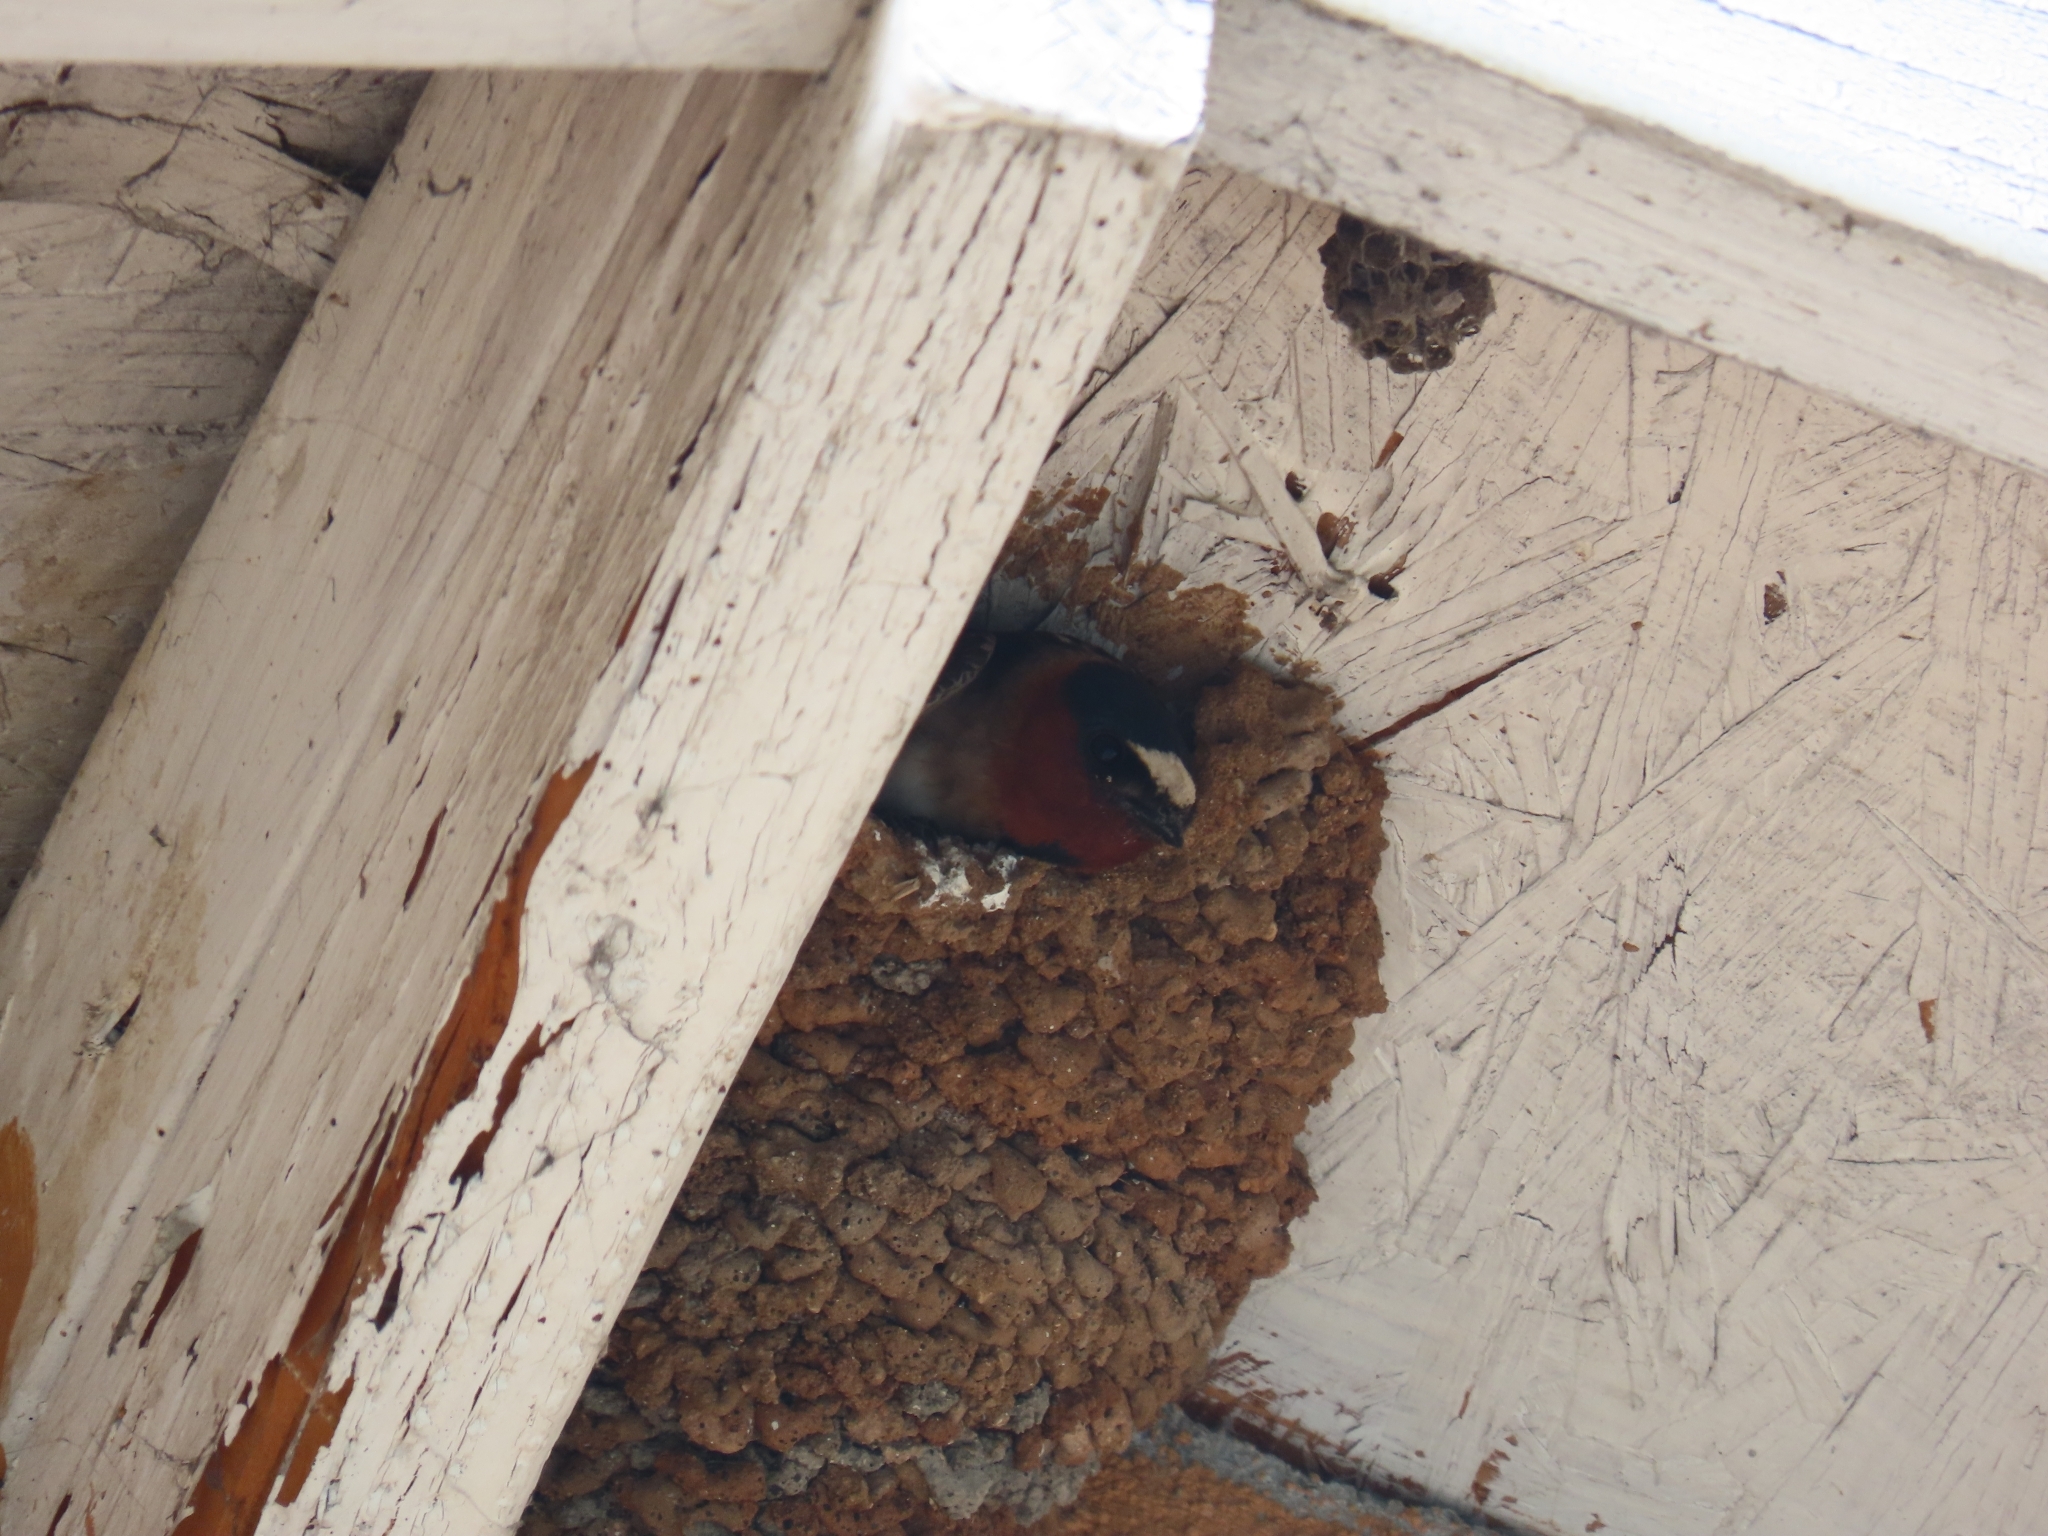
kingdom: Animalia
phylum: Chordata
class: Aves
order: Passeriformes
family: Hirundinidae
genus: Petrochelidon
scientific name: Petrochelidon pyrrhonota
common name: American cliff swallow
